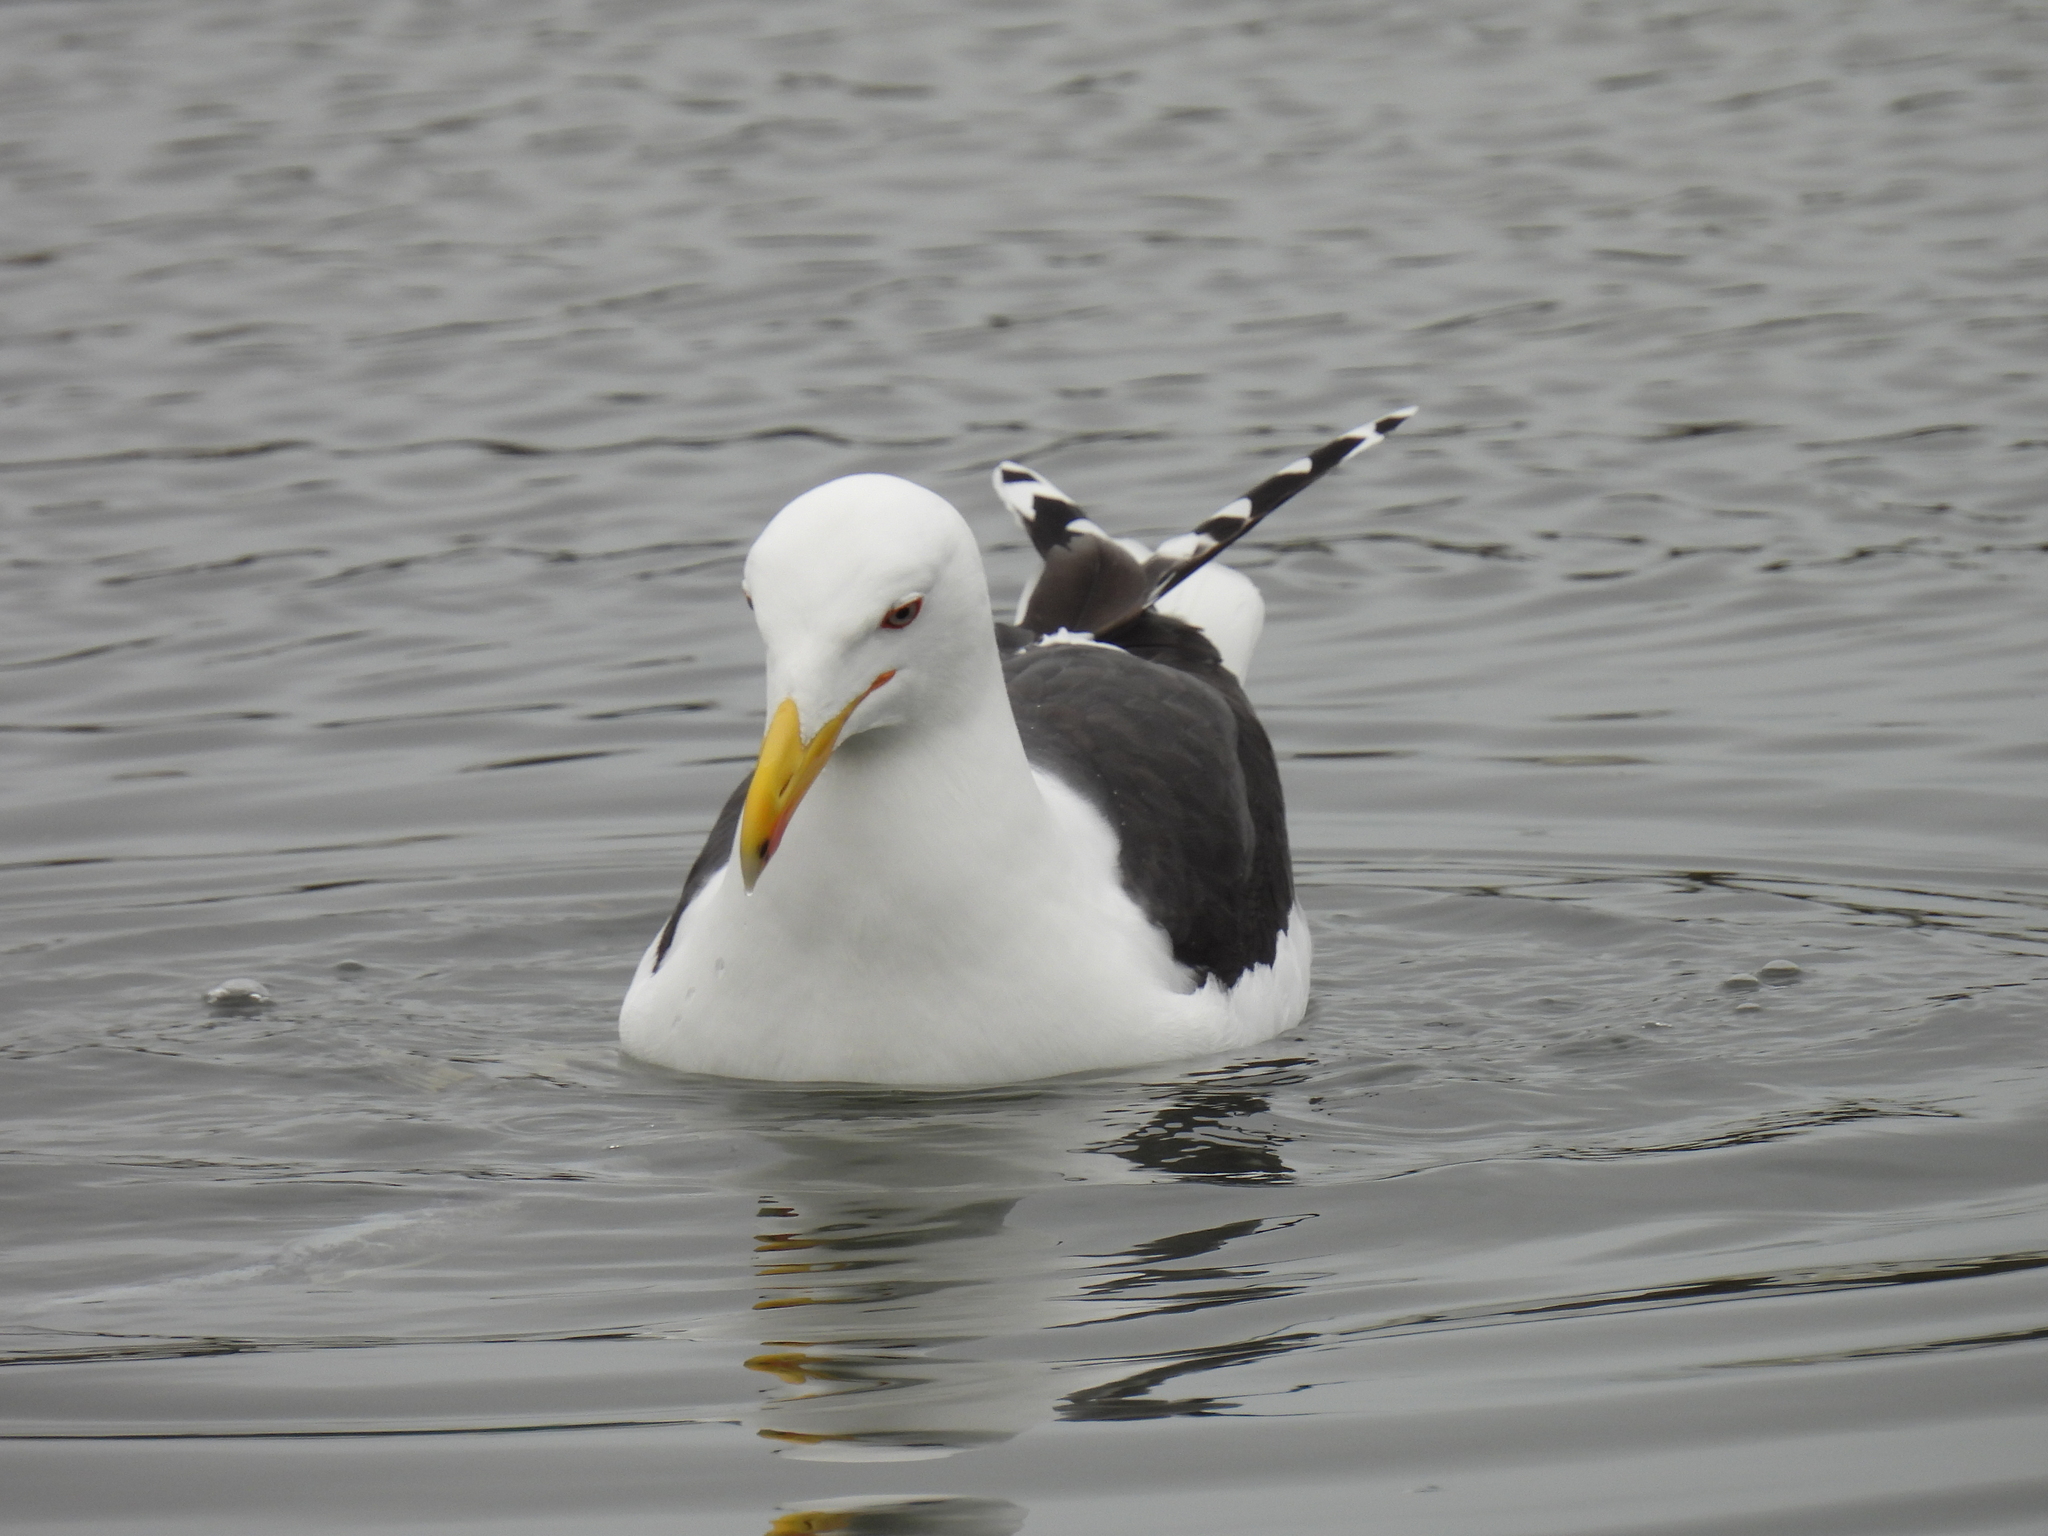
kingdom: Animalia
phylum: Chordata
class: Aves
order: Charadriiformes
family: Laridae
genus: Larus
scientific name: Larus fuscus
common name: Lesser black-backed gull
